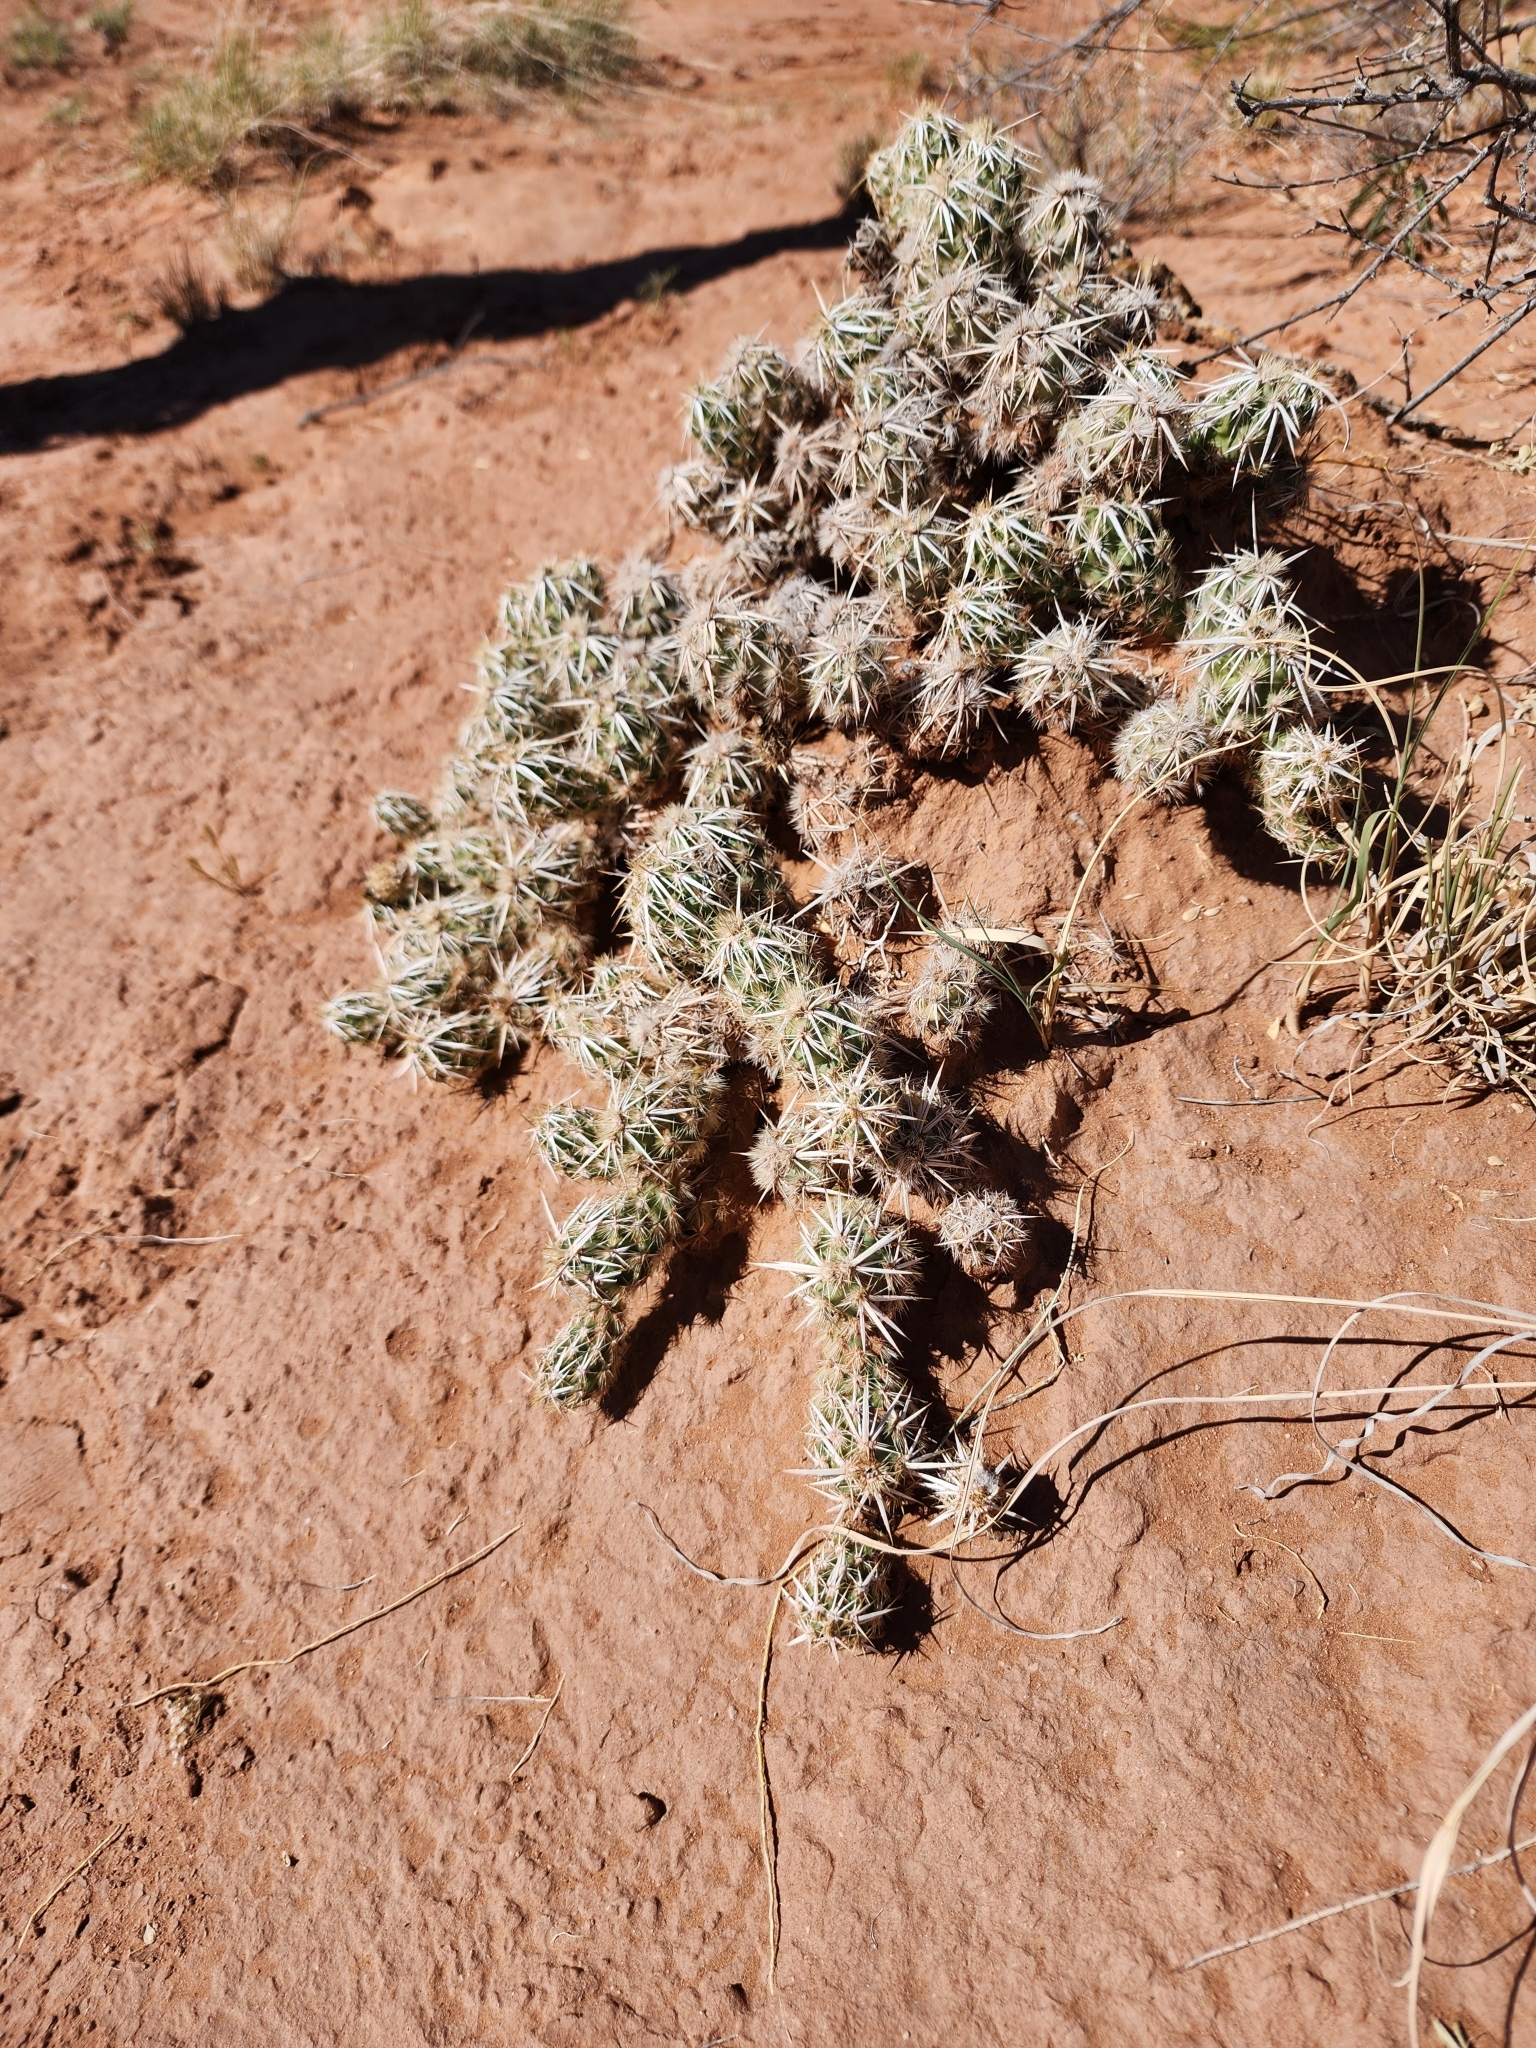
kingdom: Plantae
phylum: Tracheophyta
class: Magnoliopsida
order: Caryophyllales
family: Cactaceae
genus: Grusonia
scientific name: Grusonia clavata
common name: Club cholla
